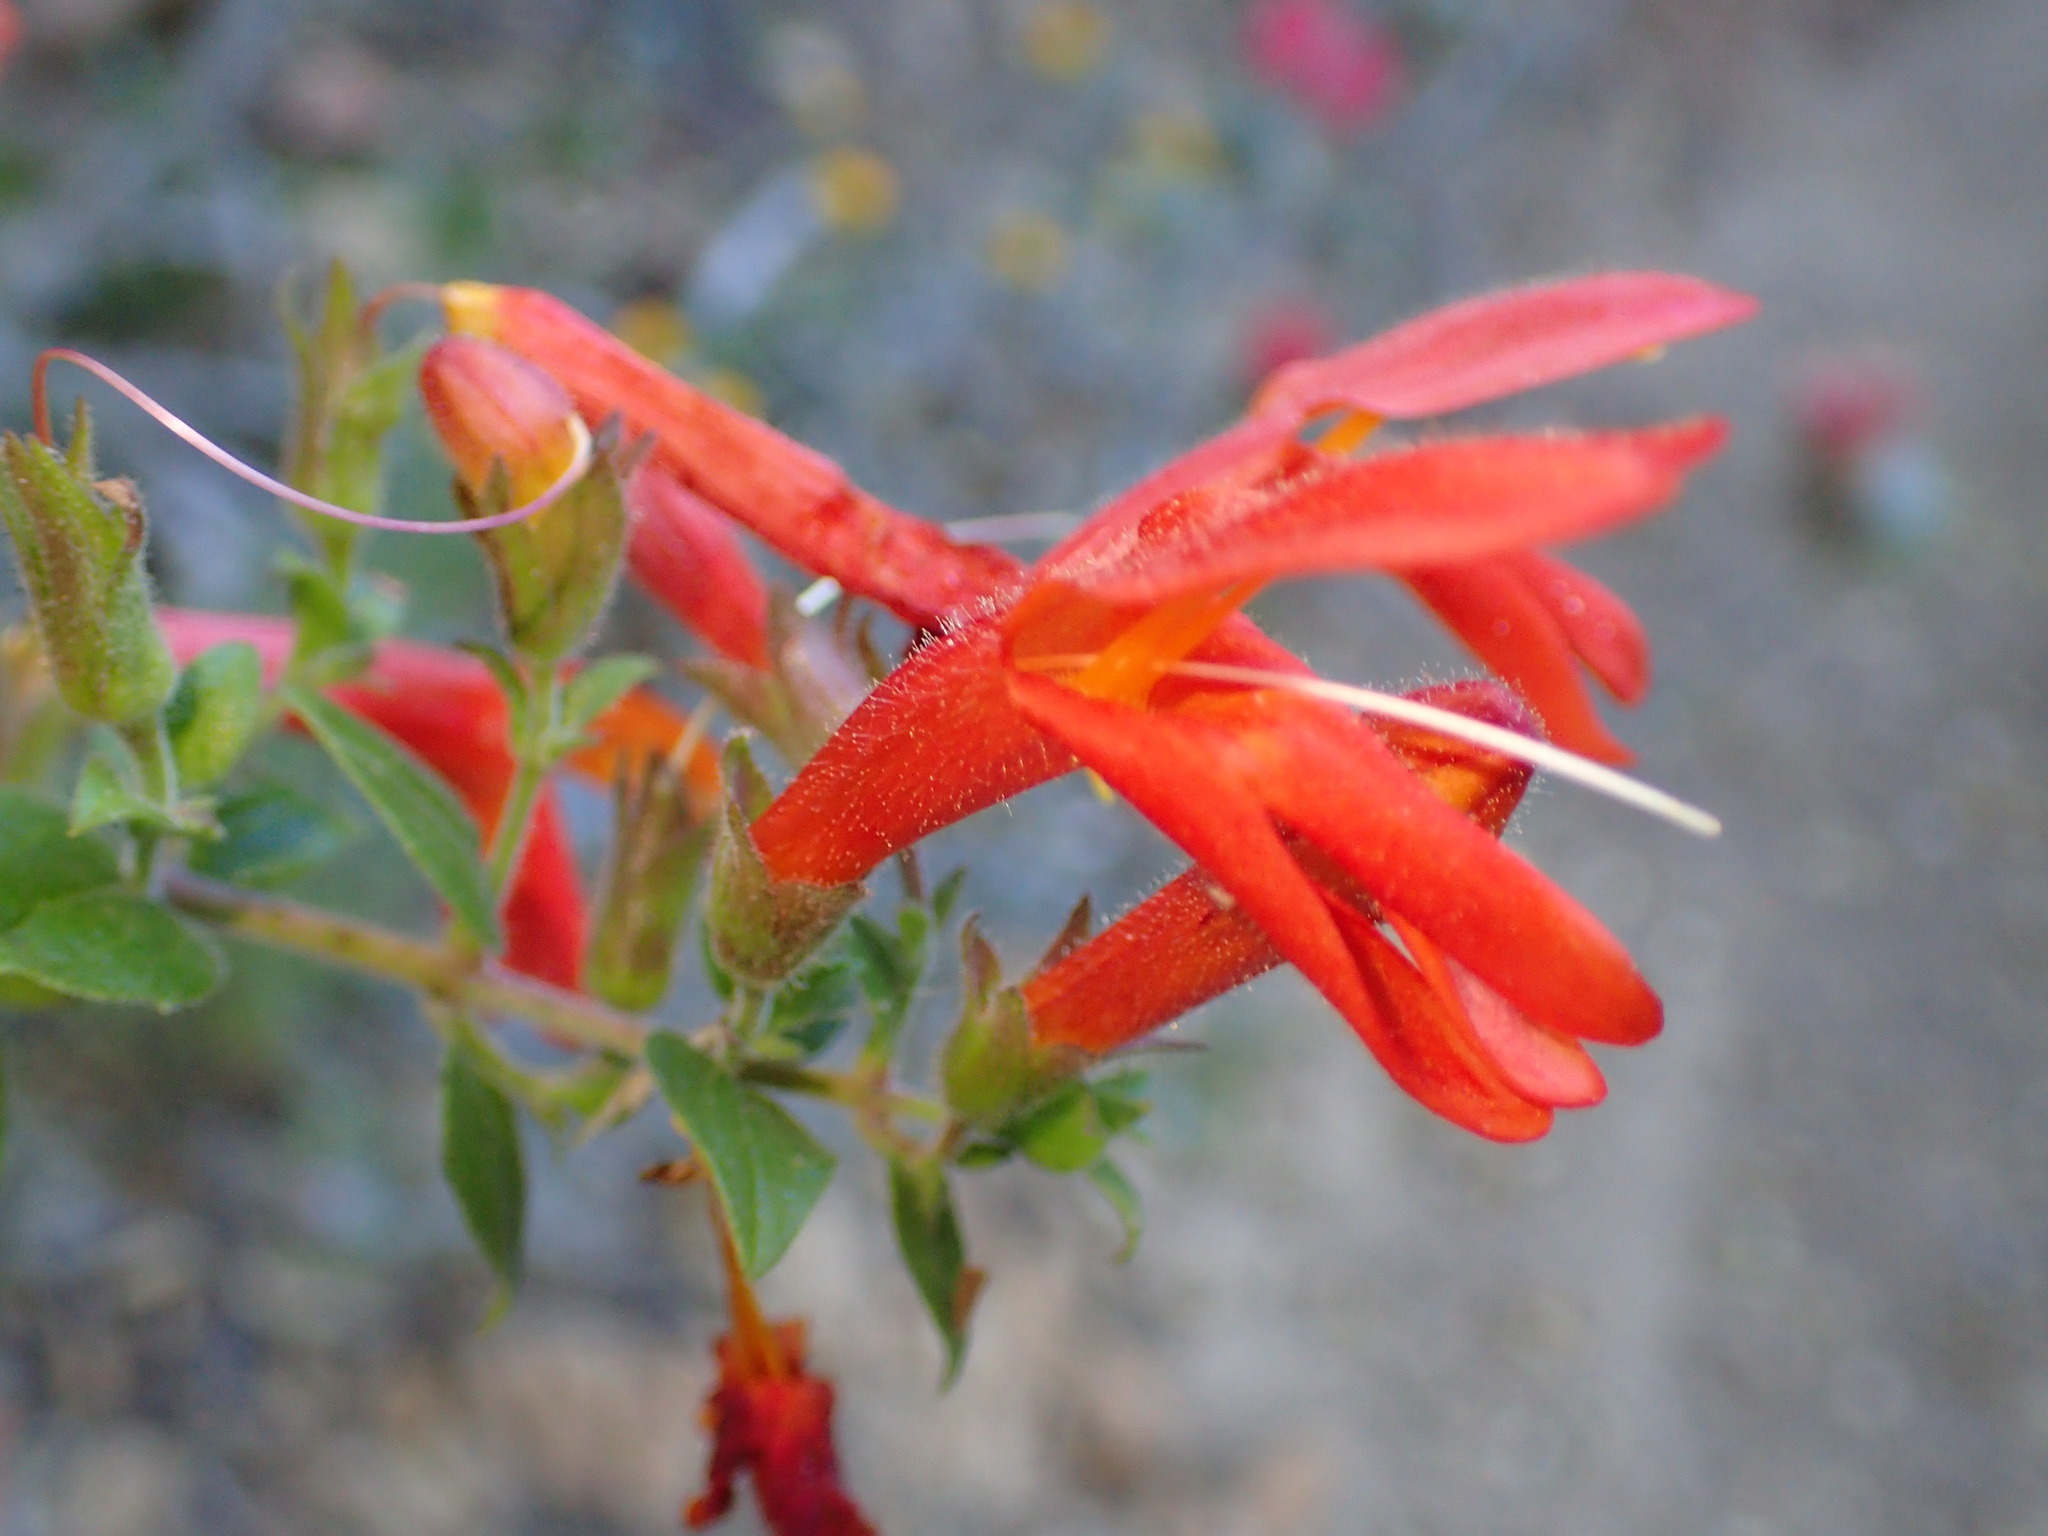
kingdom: Plantae
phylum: Tracheophyta
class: Magnoliopsida
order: Lamiales
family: Plantaginaceae
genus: Keckiella
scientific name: Keckiella cordifolia
